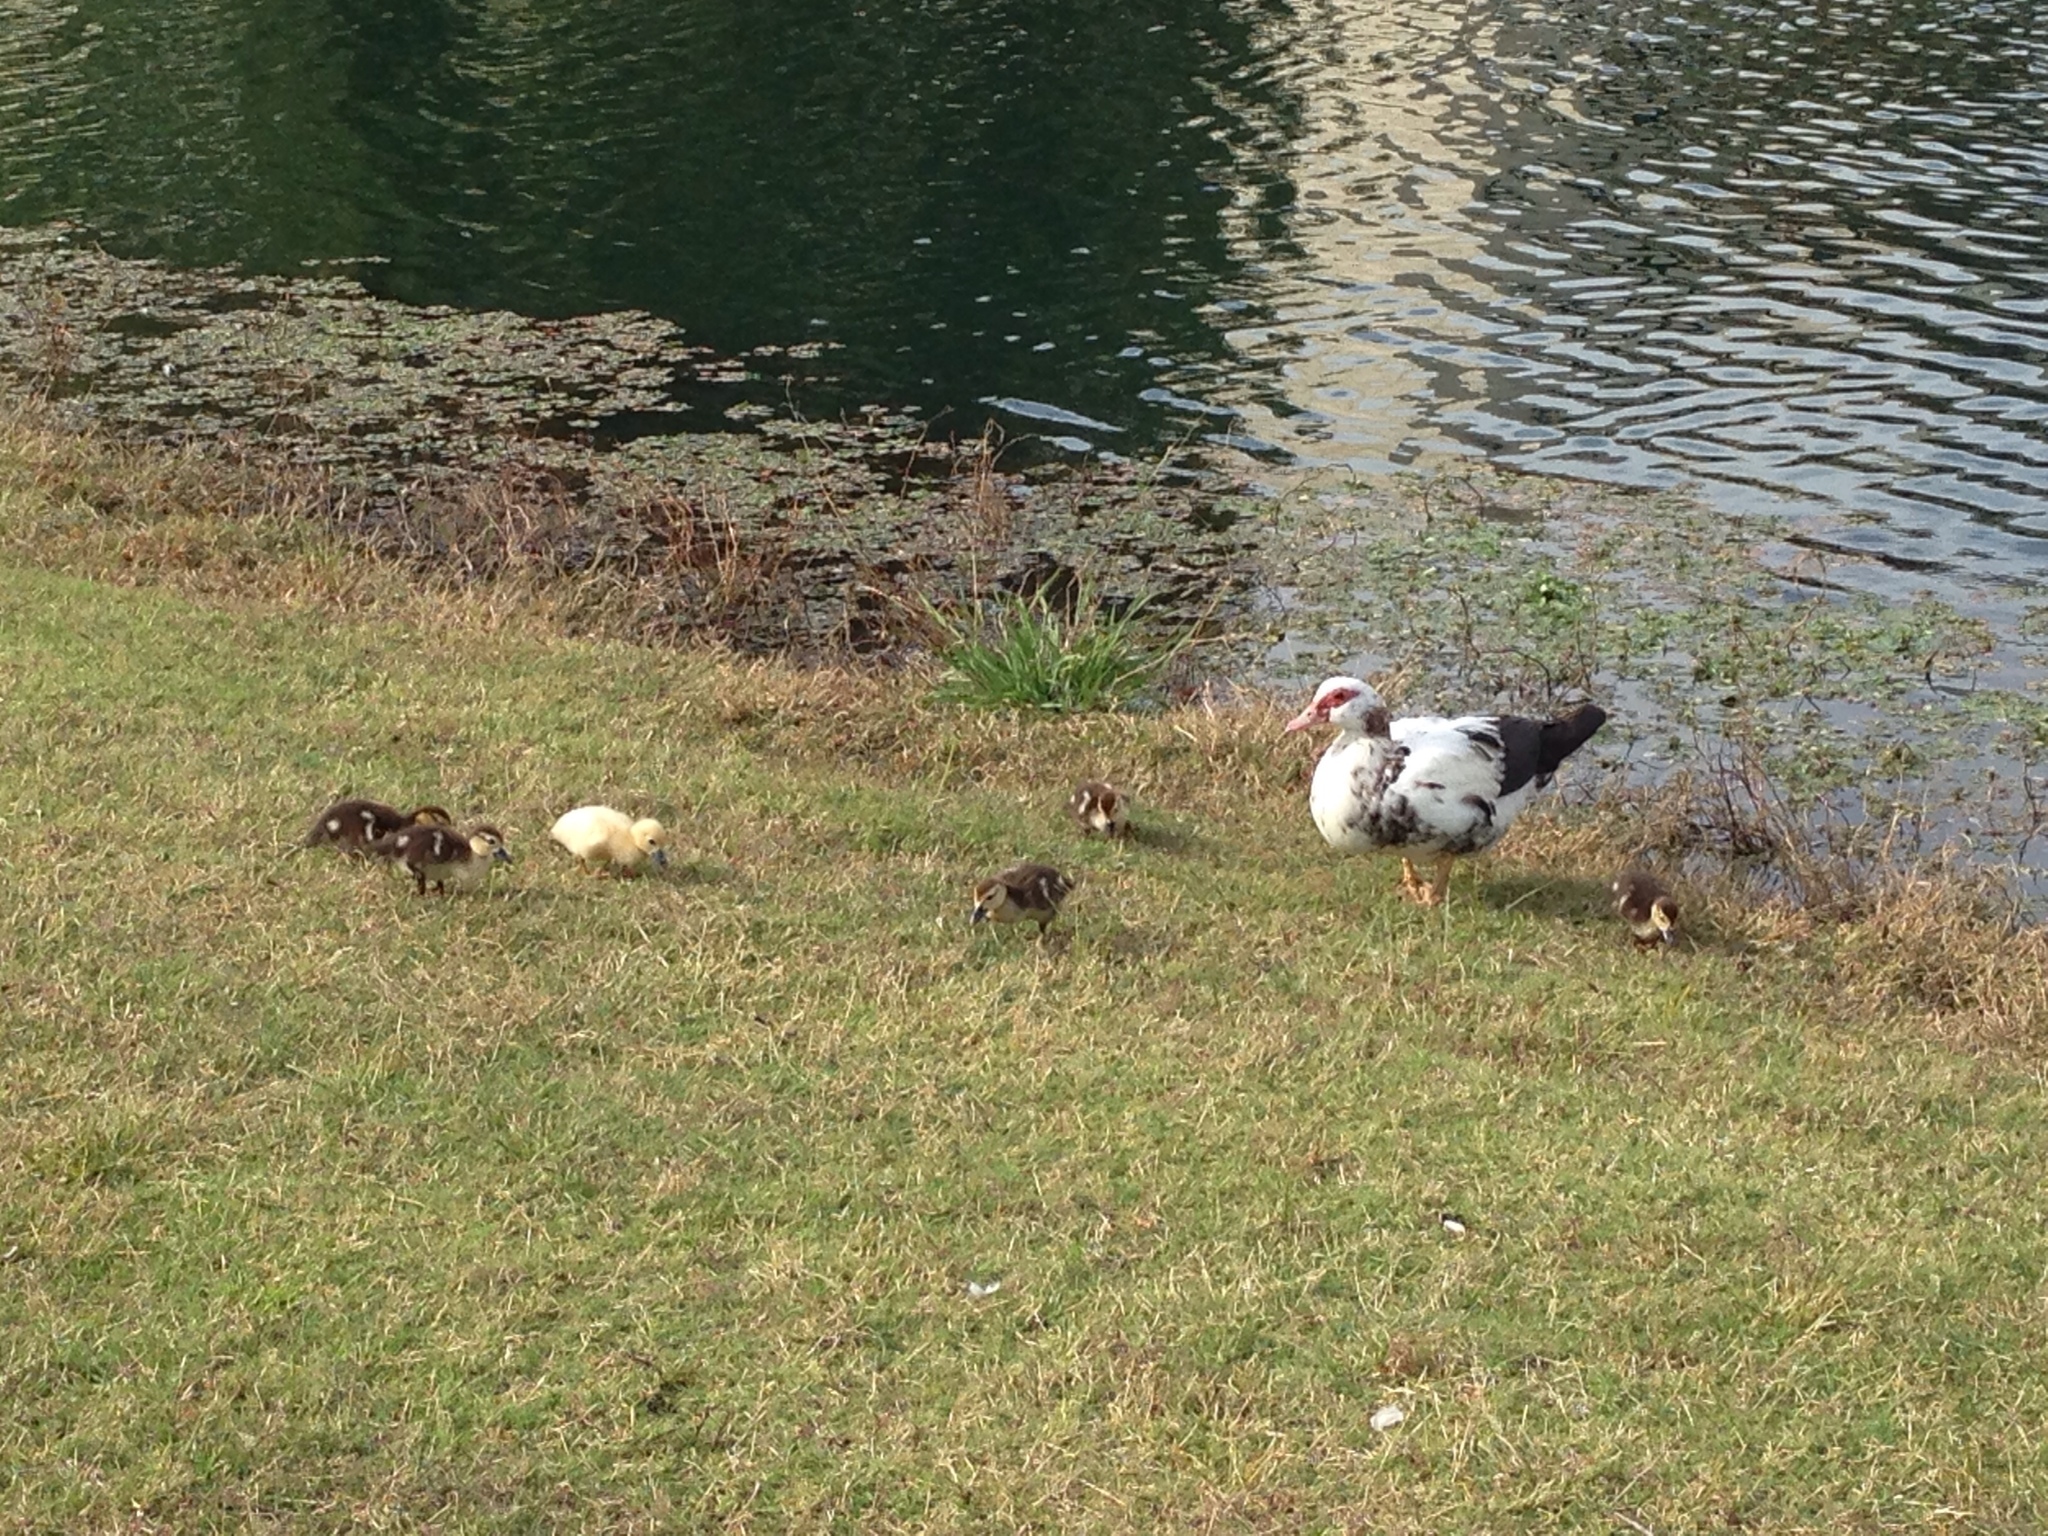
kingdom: Animalia
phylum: Chordata
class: Aves
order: Anseriformes
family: Anatidae
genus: Cairina
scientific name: Cairina moschata
